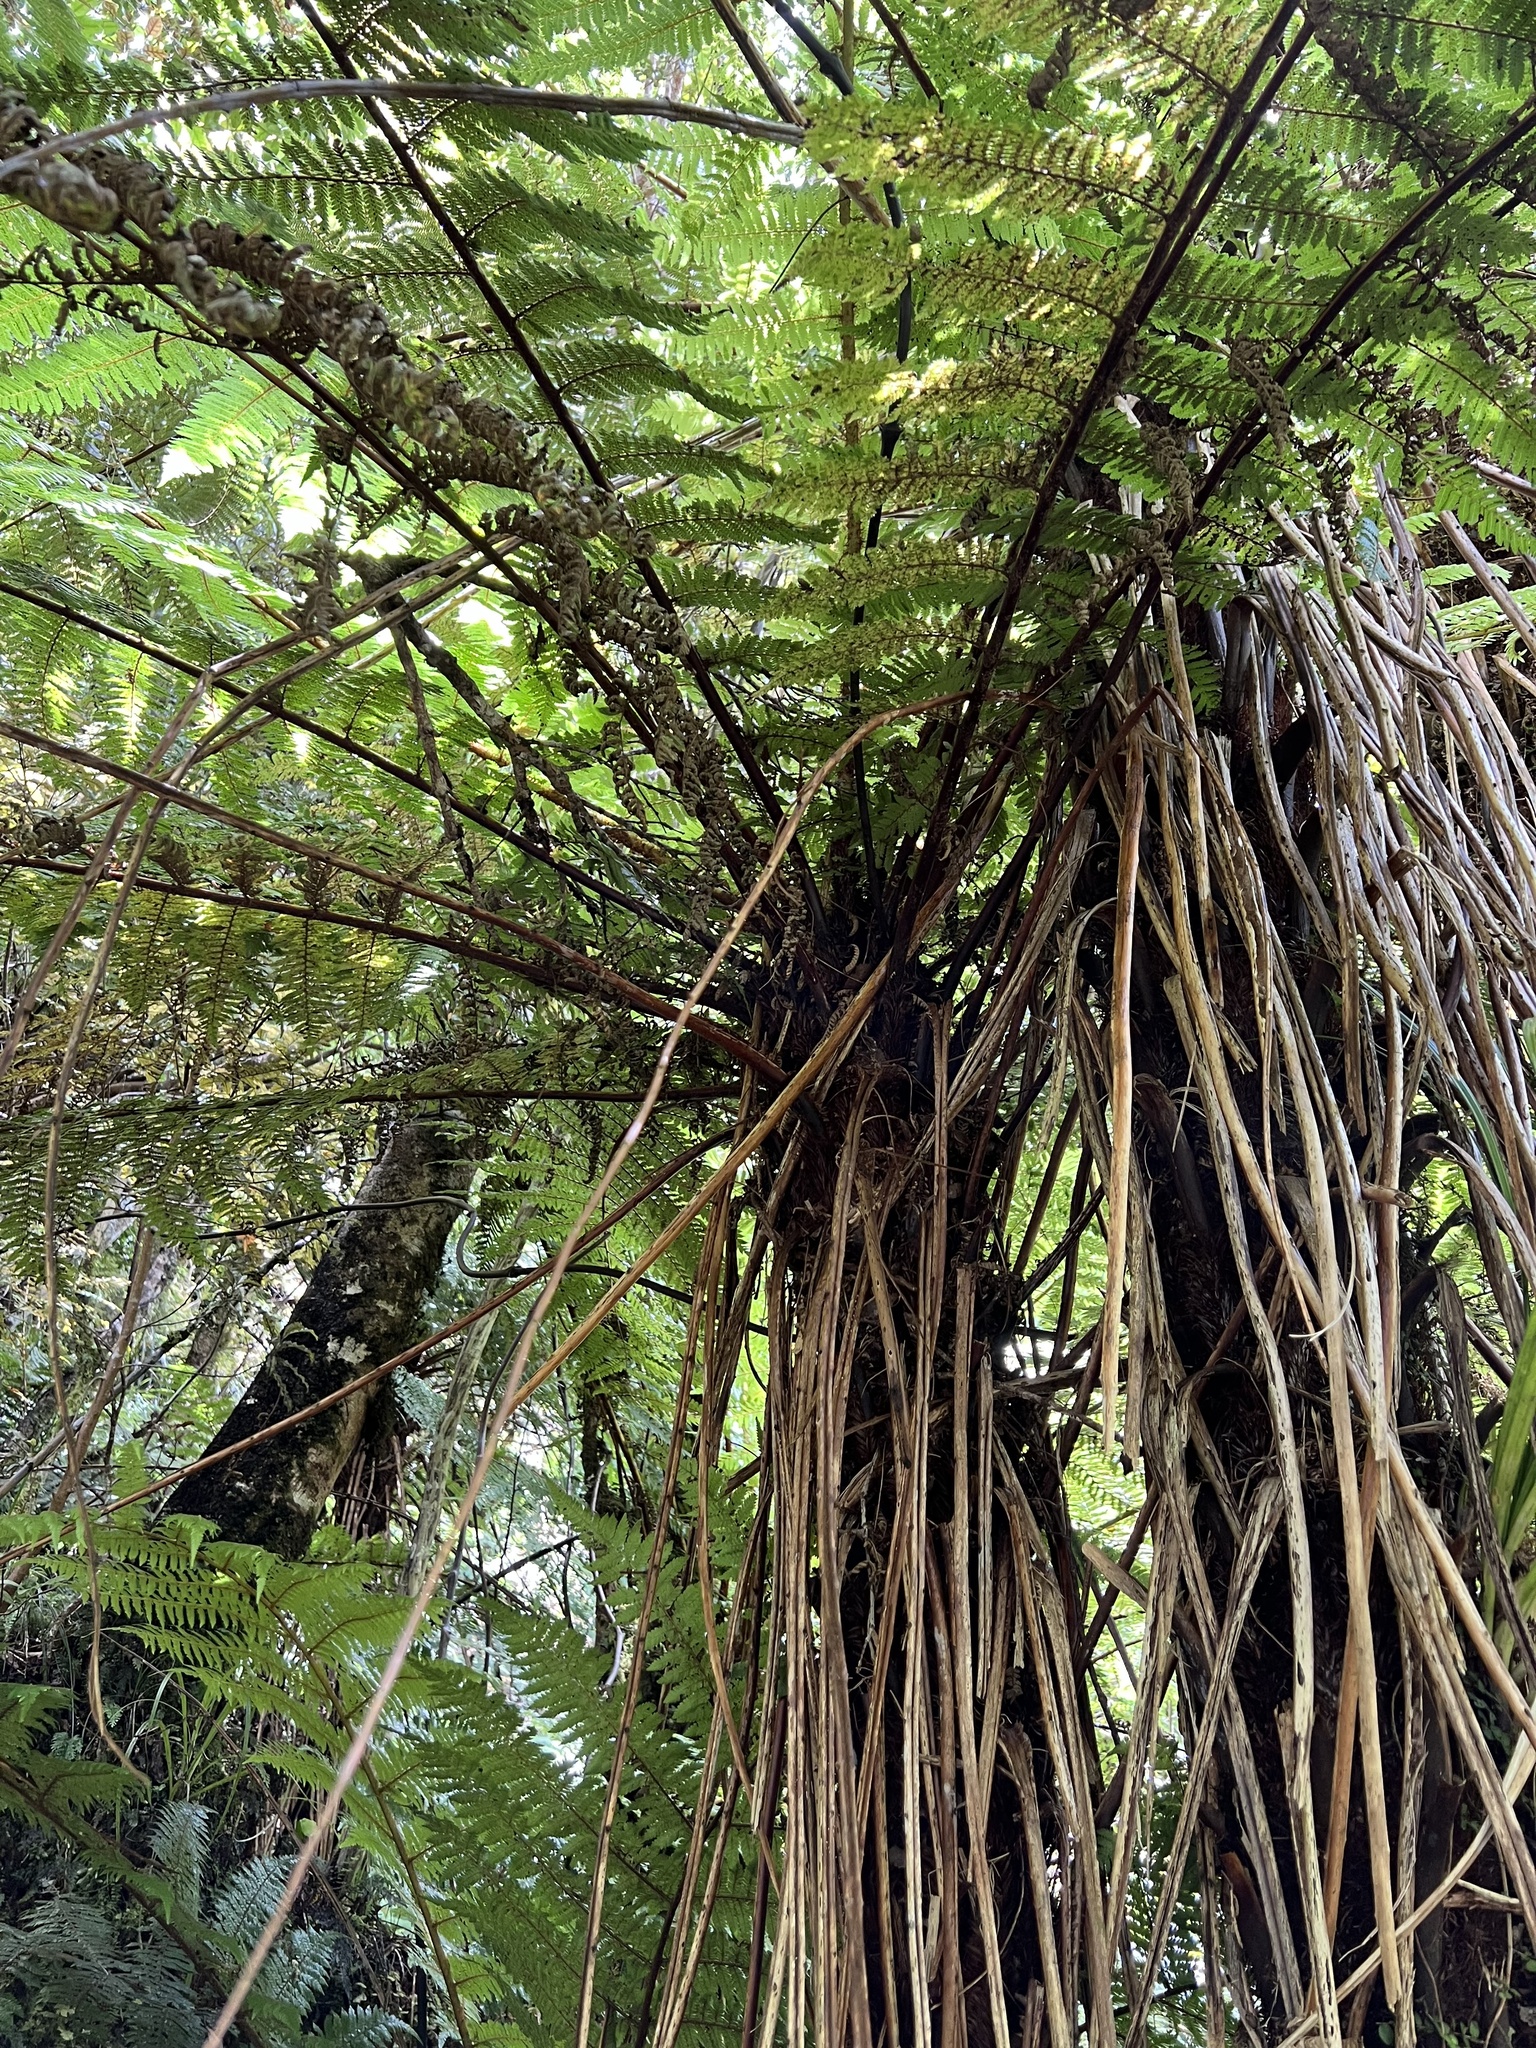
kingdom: Plantae
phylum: Tracheophyta
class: Polypodiopsida
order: Cyatheales
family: Cyatheaceae
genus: Alsophila
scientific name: Alsophila smithii
